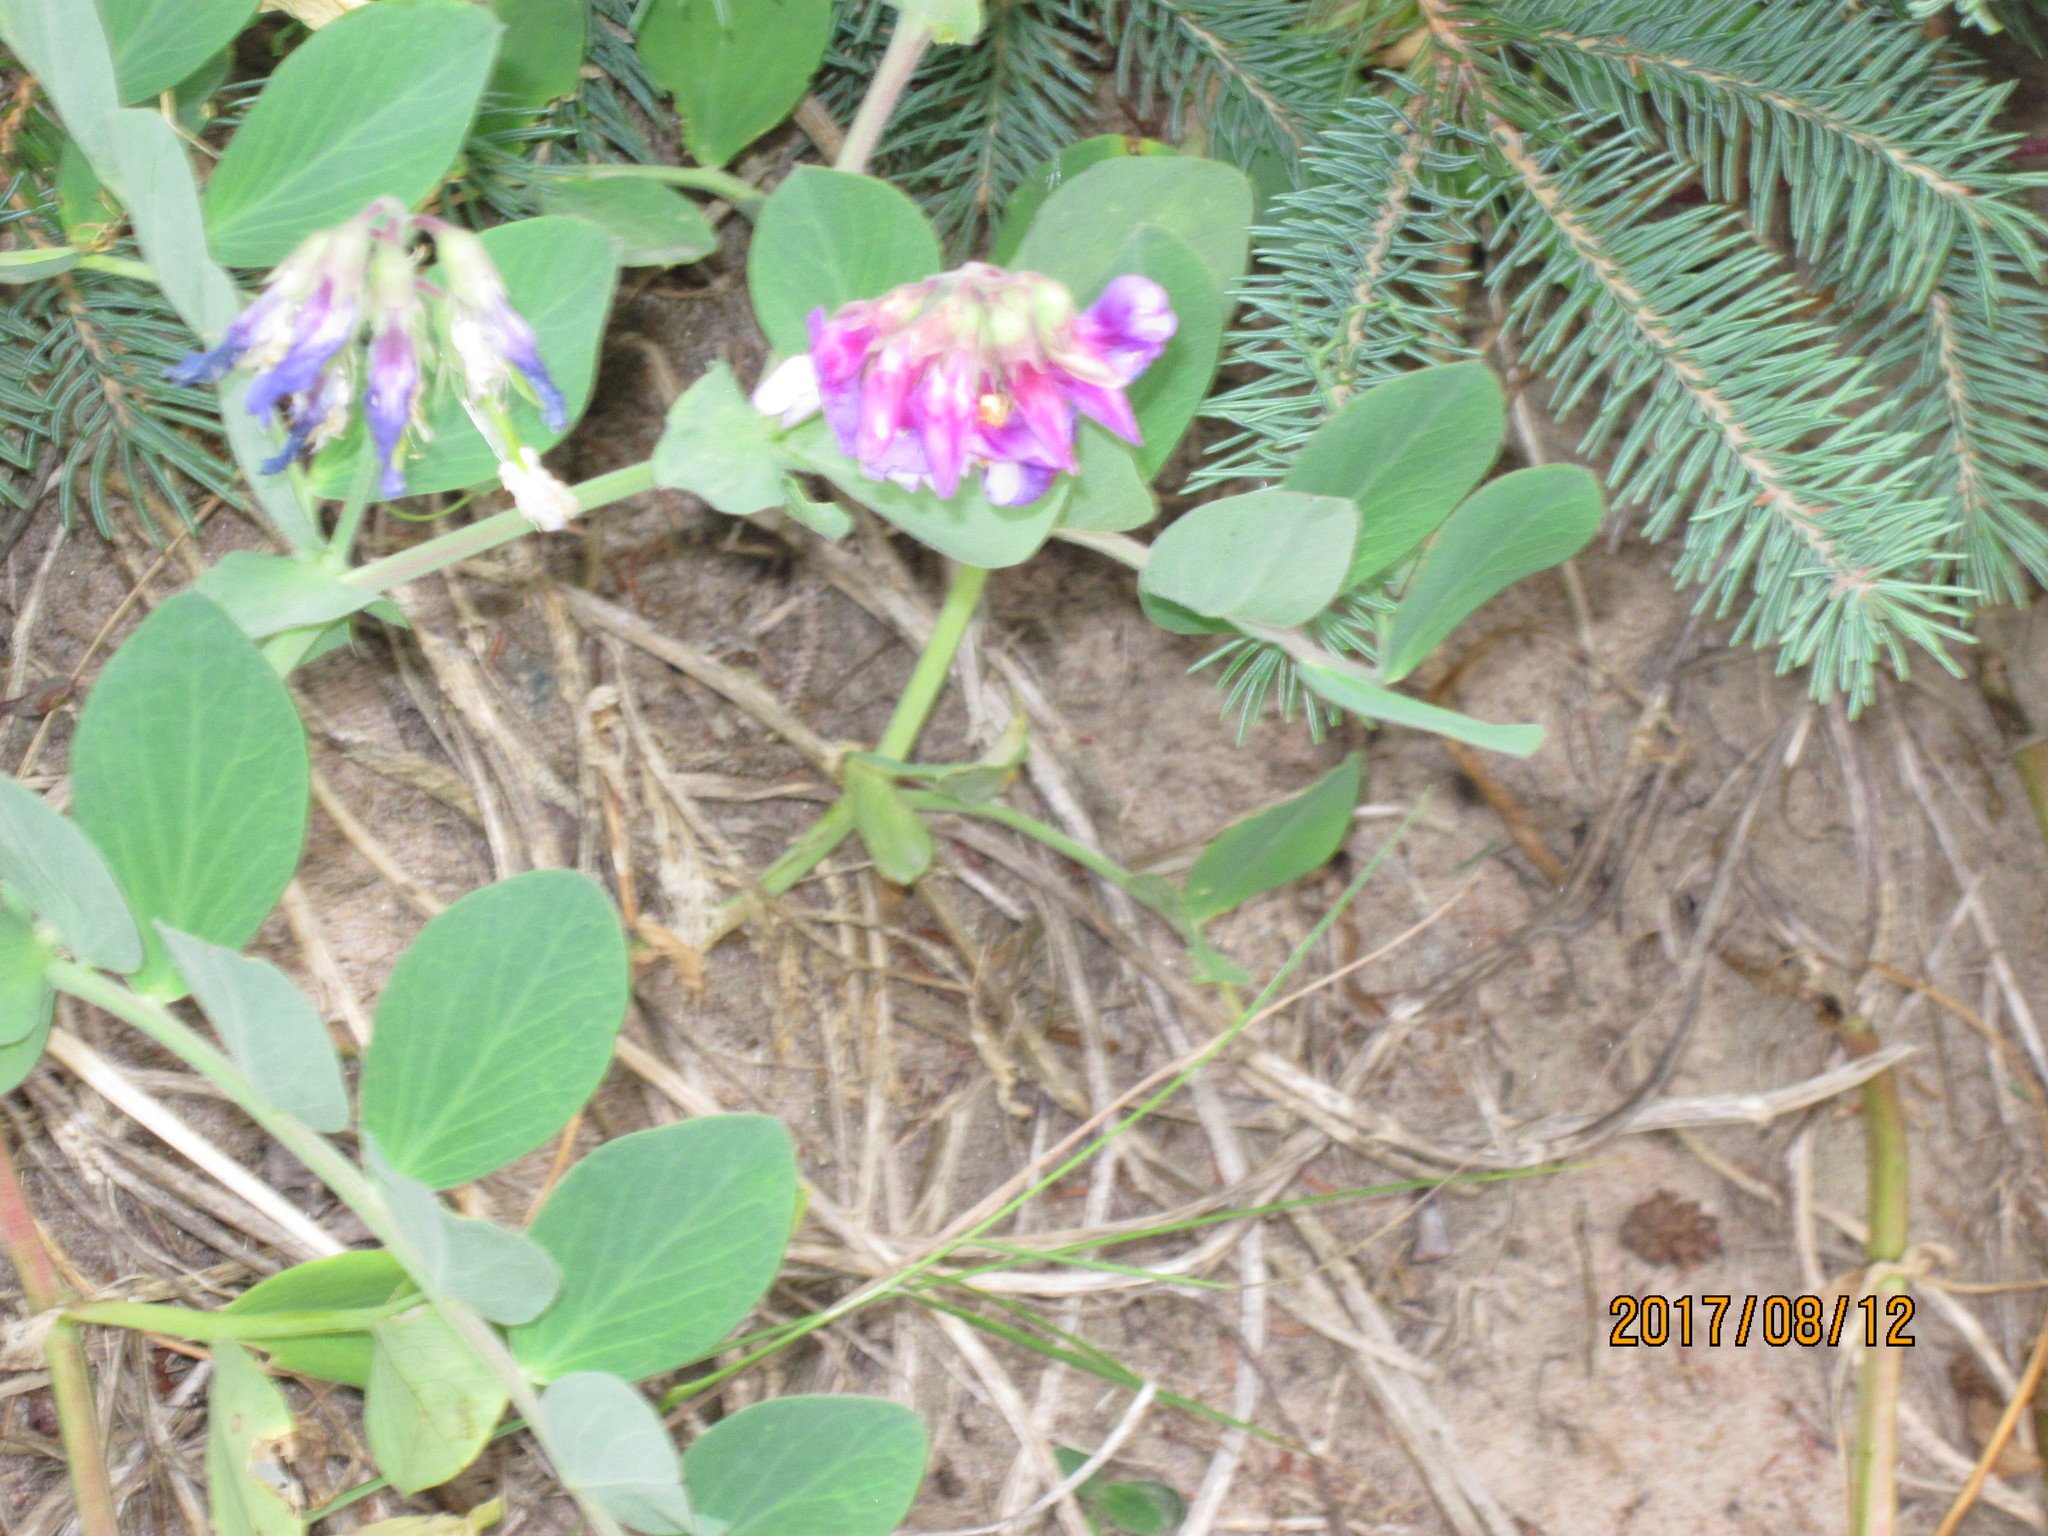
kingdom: Plantae
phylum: Tracheophyta
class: Magnoliopsida
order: Fabales
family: Fabaceae
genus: Lathyrus
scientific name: Lathyrus japonicus
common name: Sea pea
